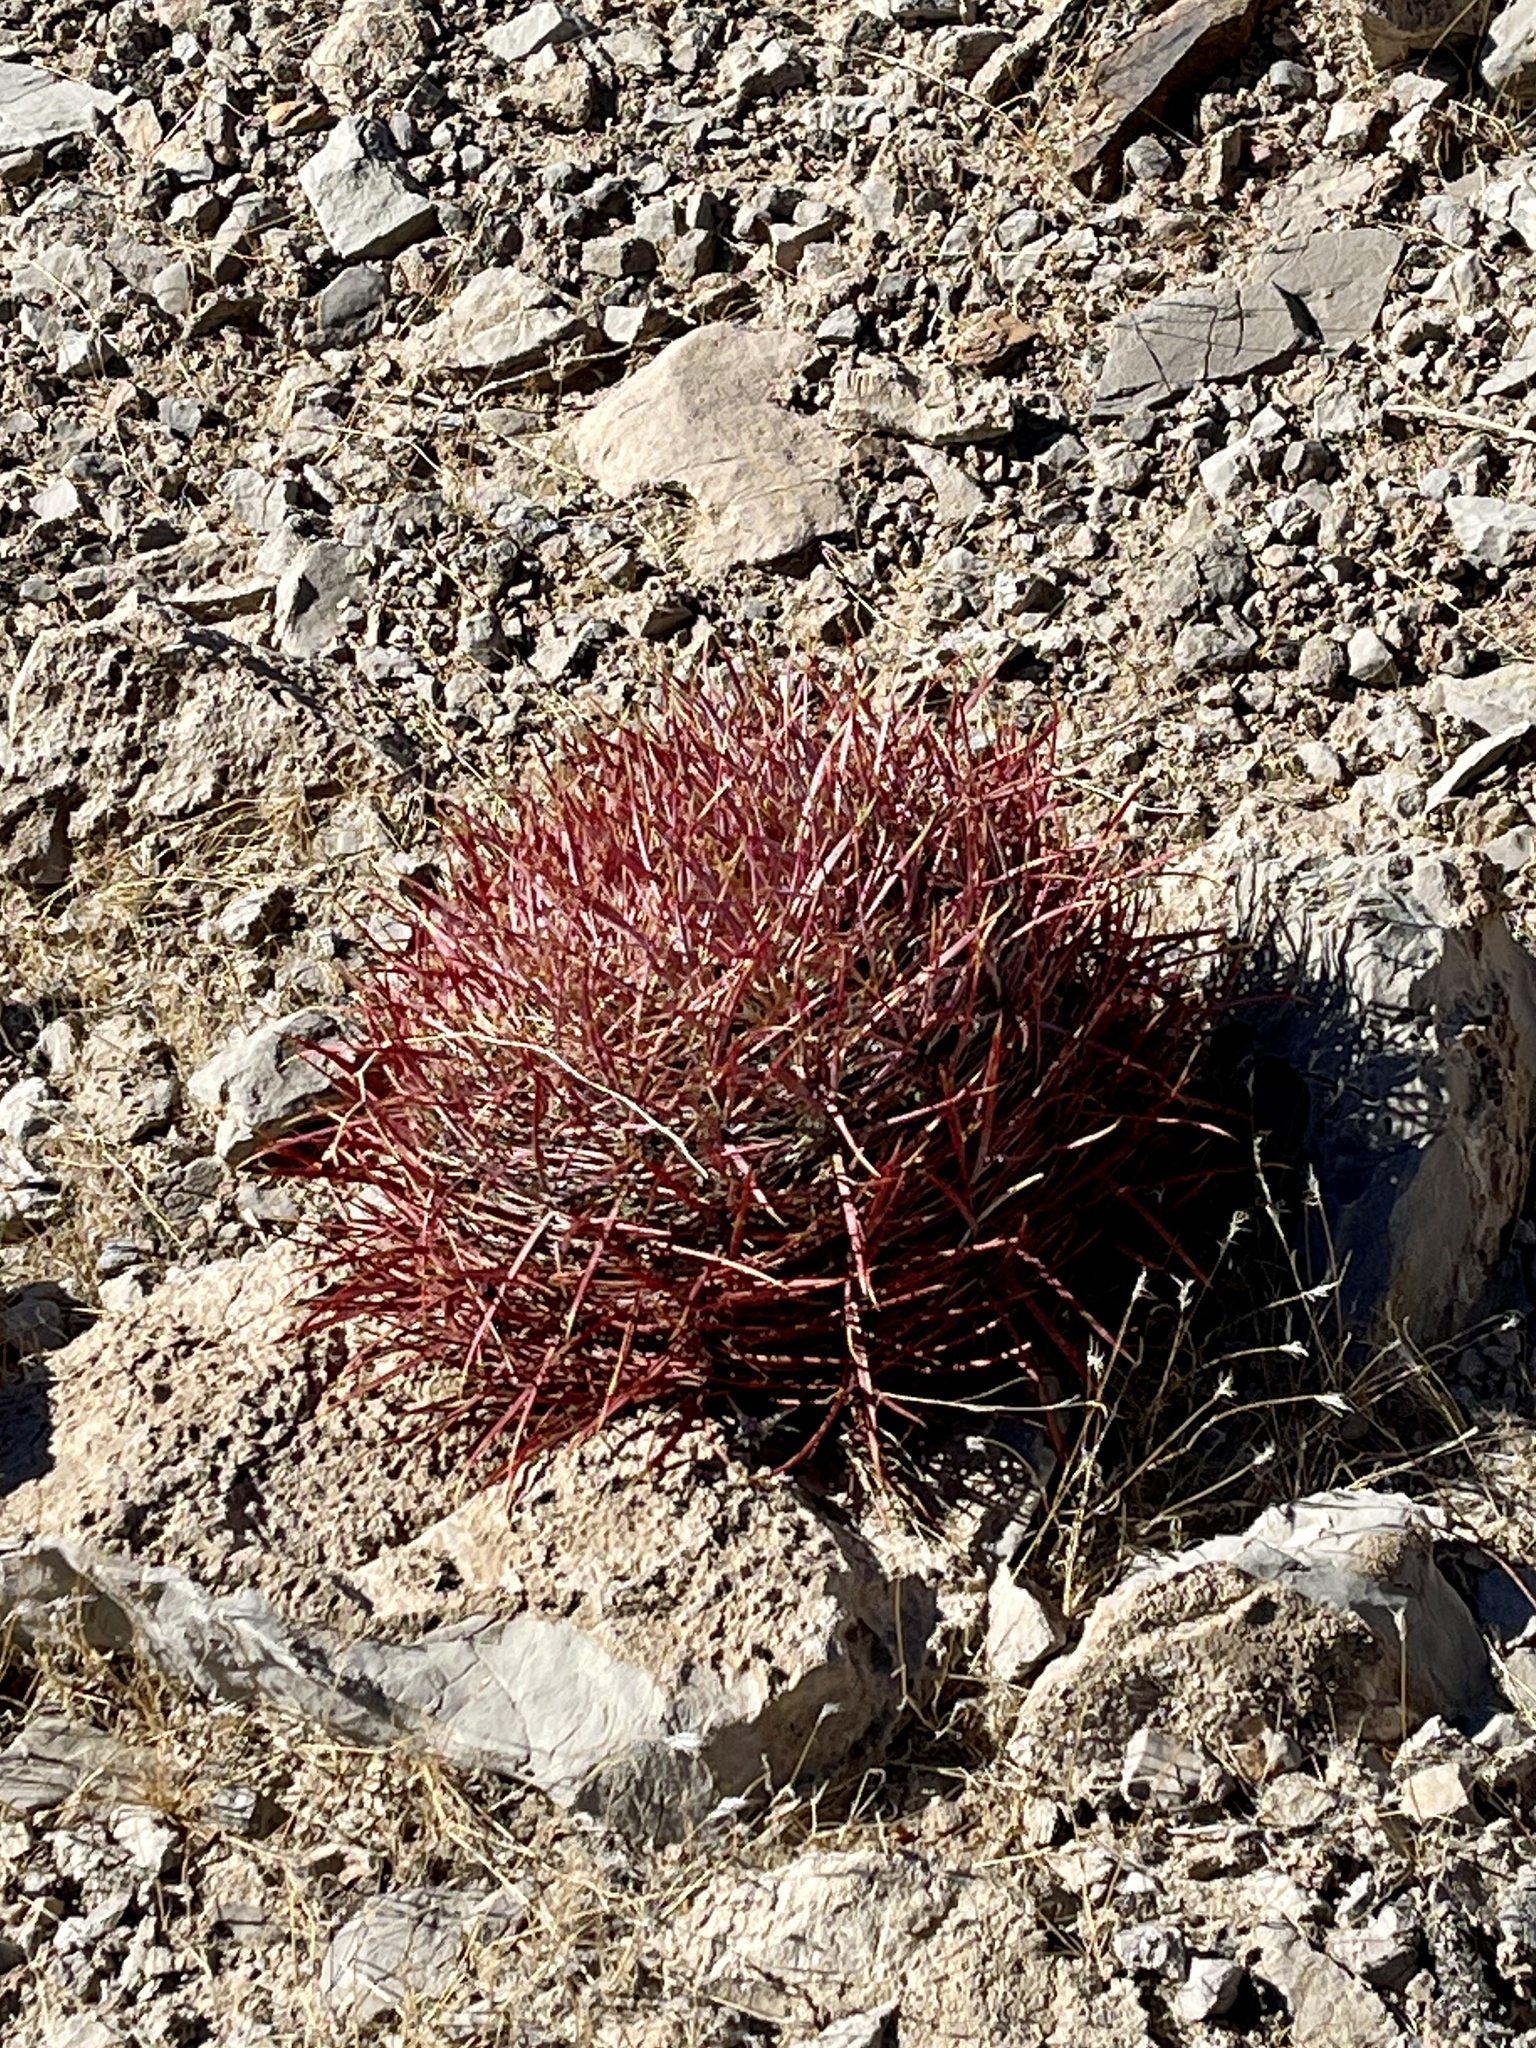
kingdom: Plantae
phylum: Tracheophyta
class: Magnoliopsida
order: Caryophyllales
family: Cactaceae
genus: Ferocactus
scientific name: Ferocactus cylindraceus
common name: California barrel cactus
